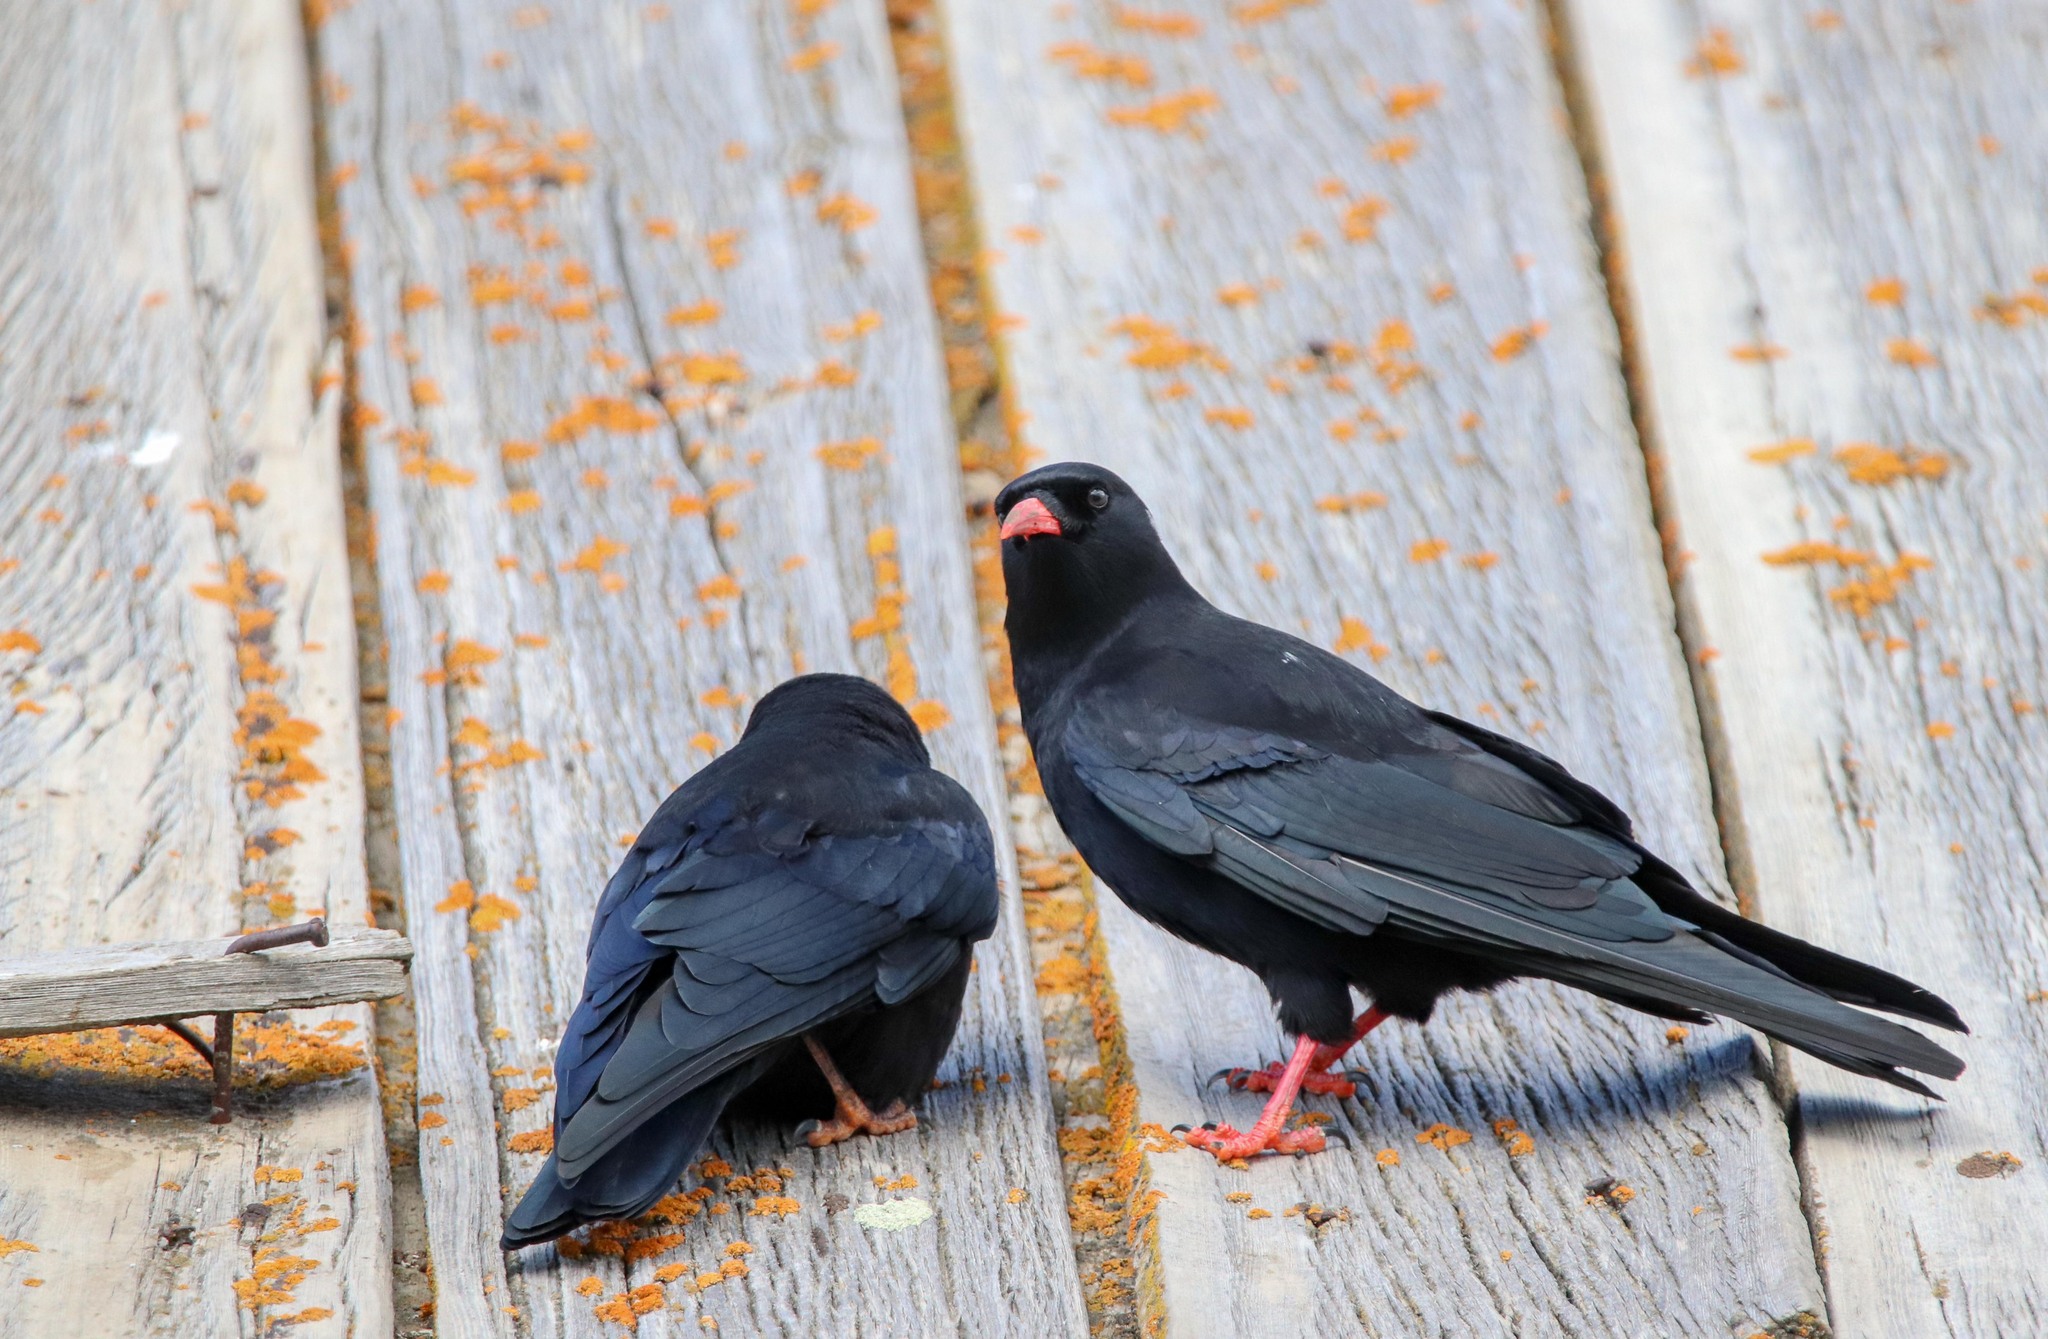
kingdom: Animalia
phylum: Chordata
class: Aves
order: Passeriformes
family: Corvidae
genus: Pyrrhocorax
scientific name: Pyrrhocorax pyrrhocorax
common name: Red-billed chough
